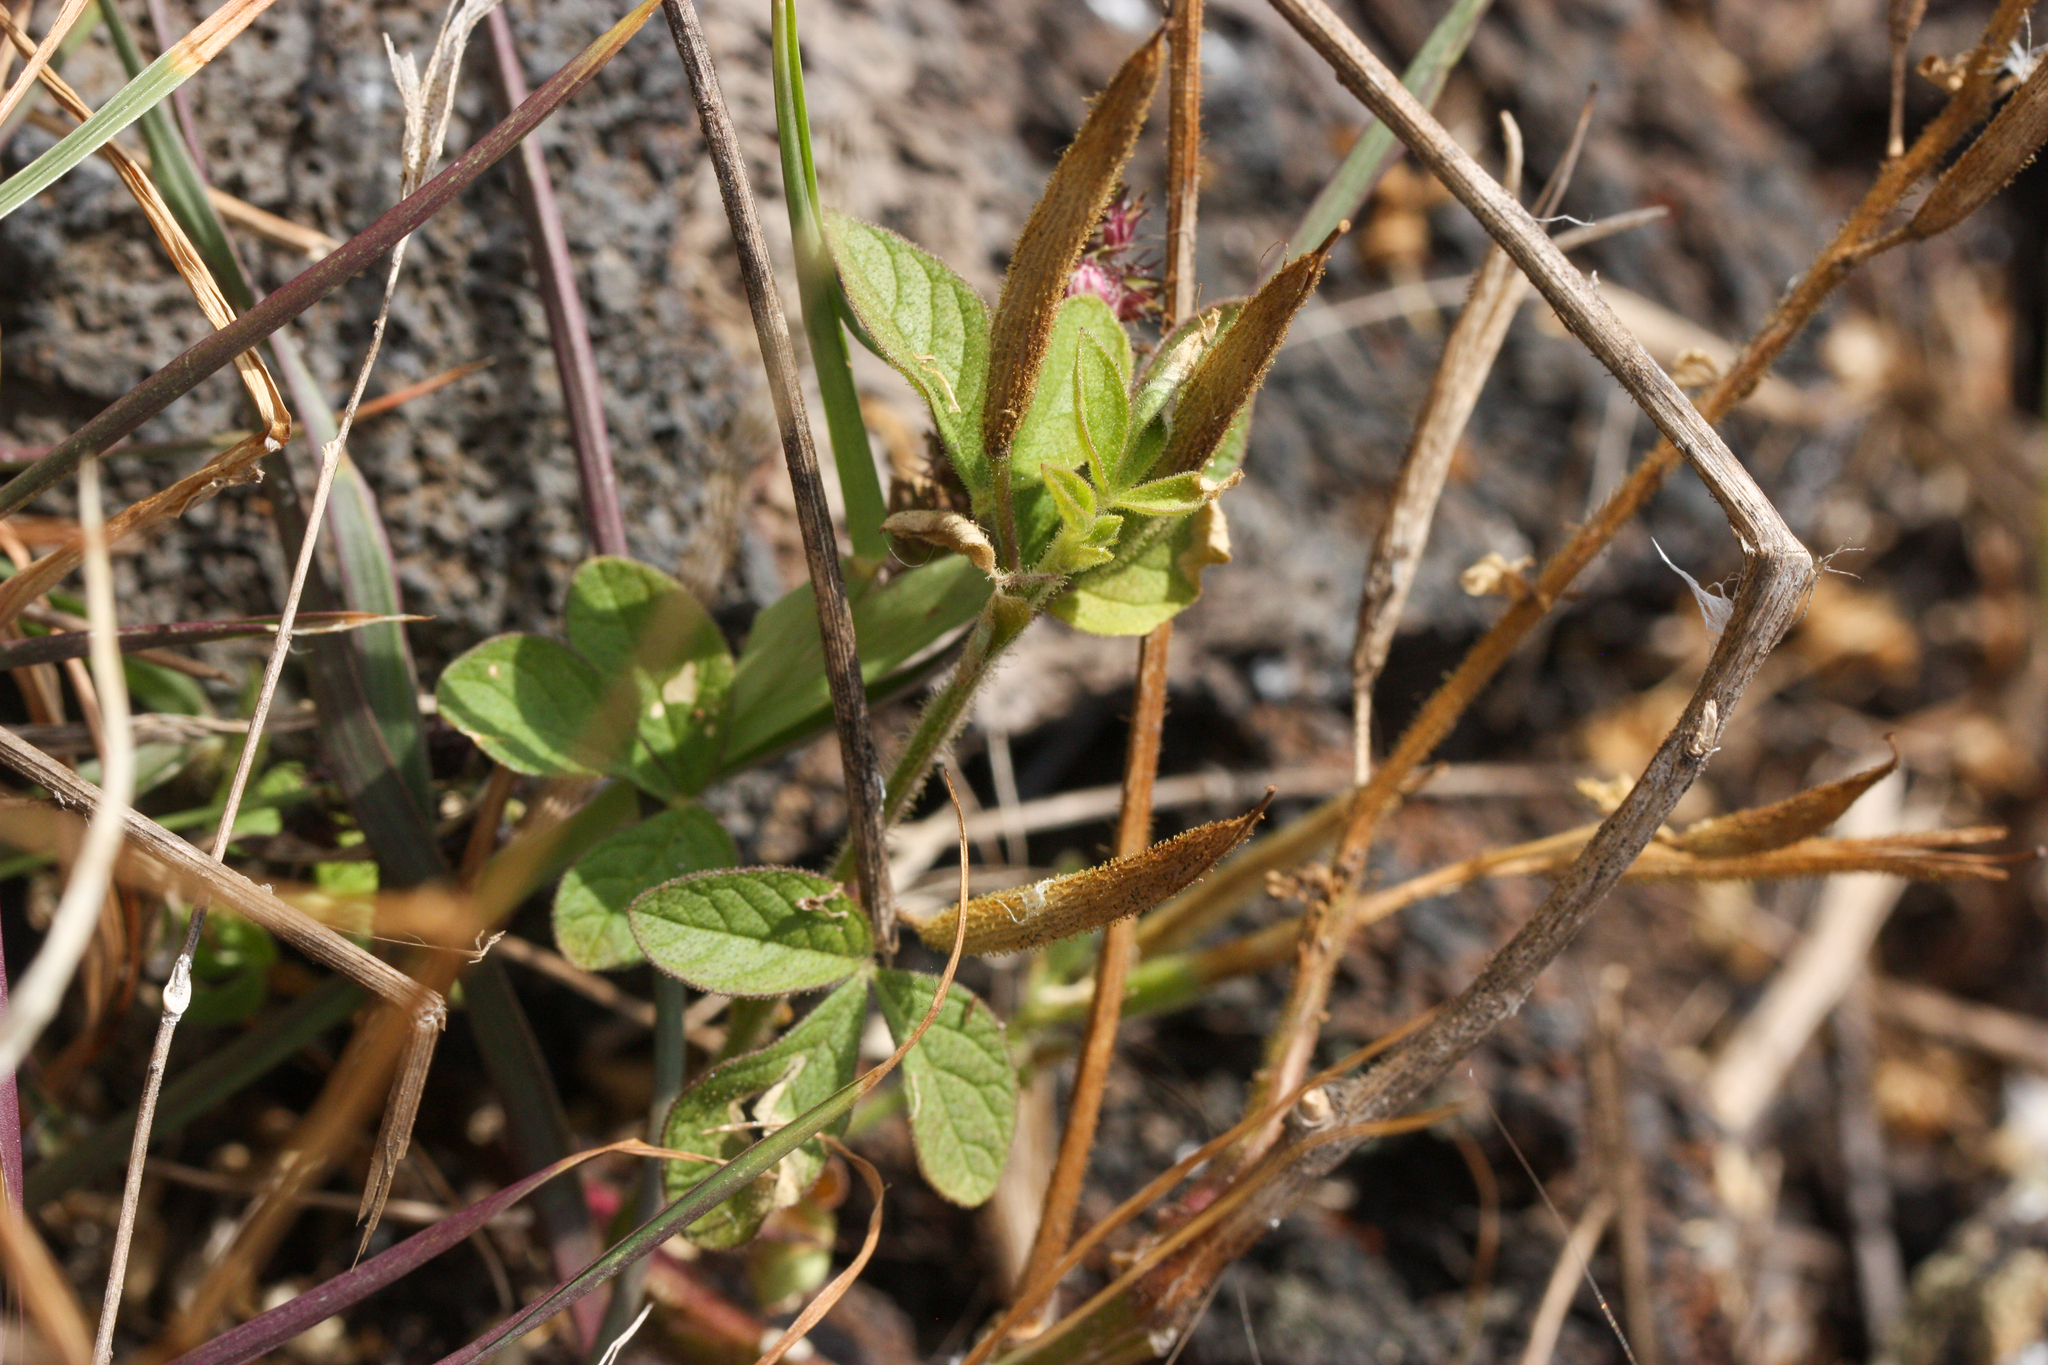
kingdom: Plantae
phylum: Tracheophyta
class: Magnoliopsida
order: Brassicales
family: Cleomaceae
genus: Arivela
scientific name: Arivela viscosa
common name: Asian spiderflower
